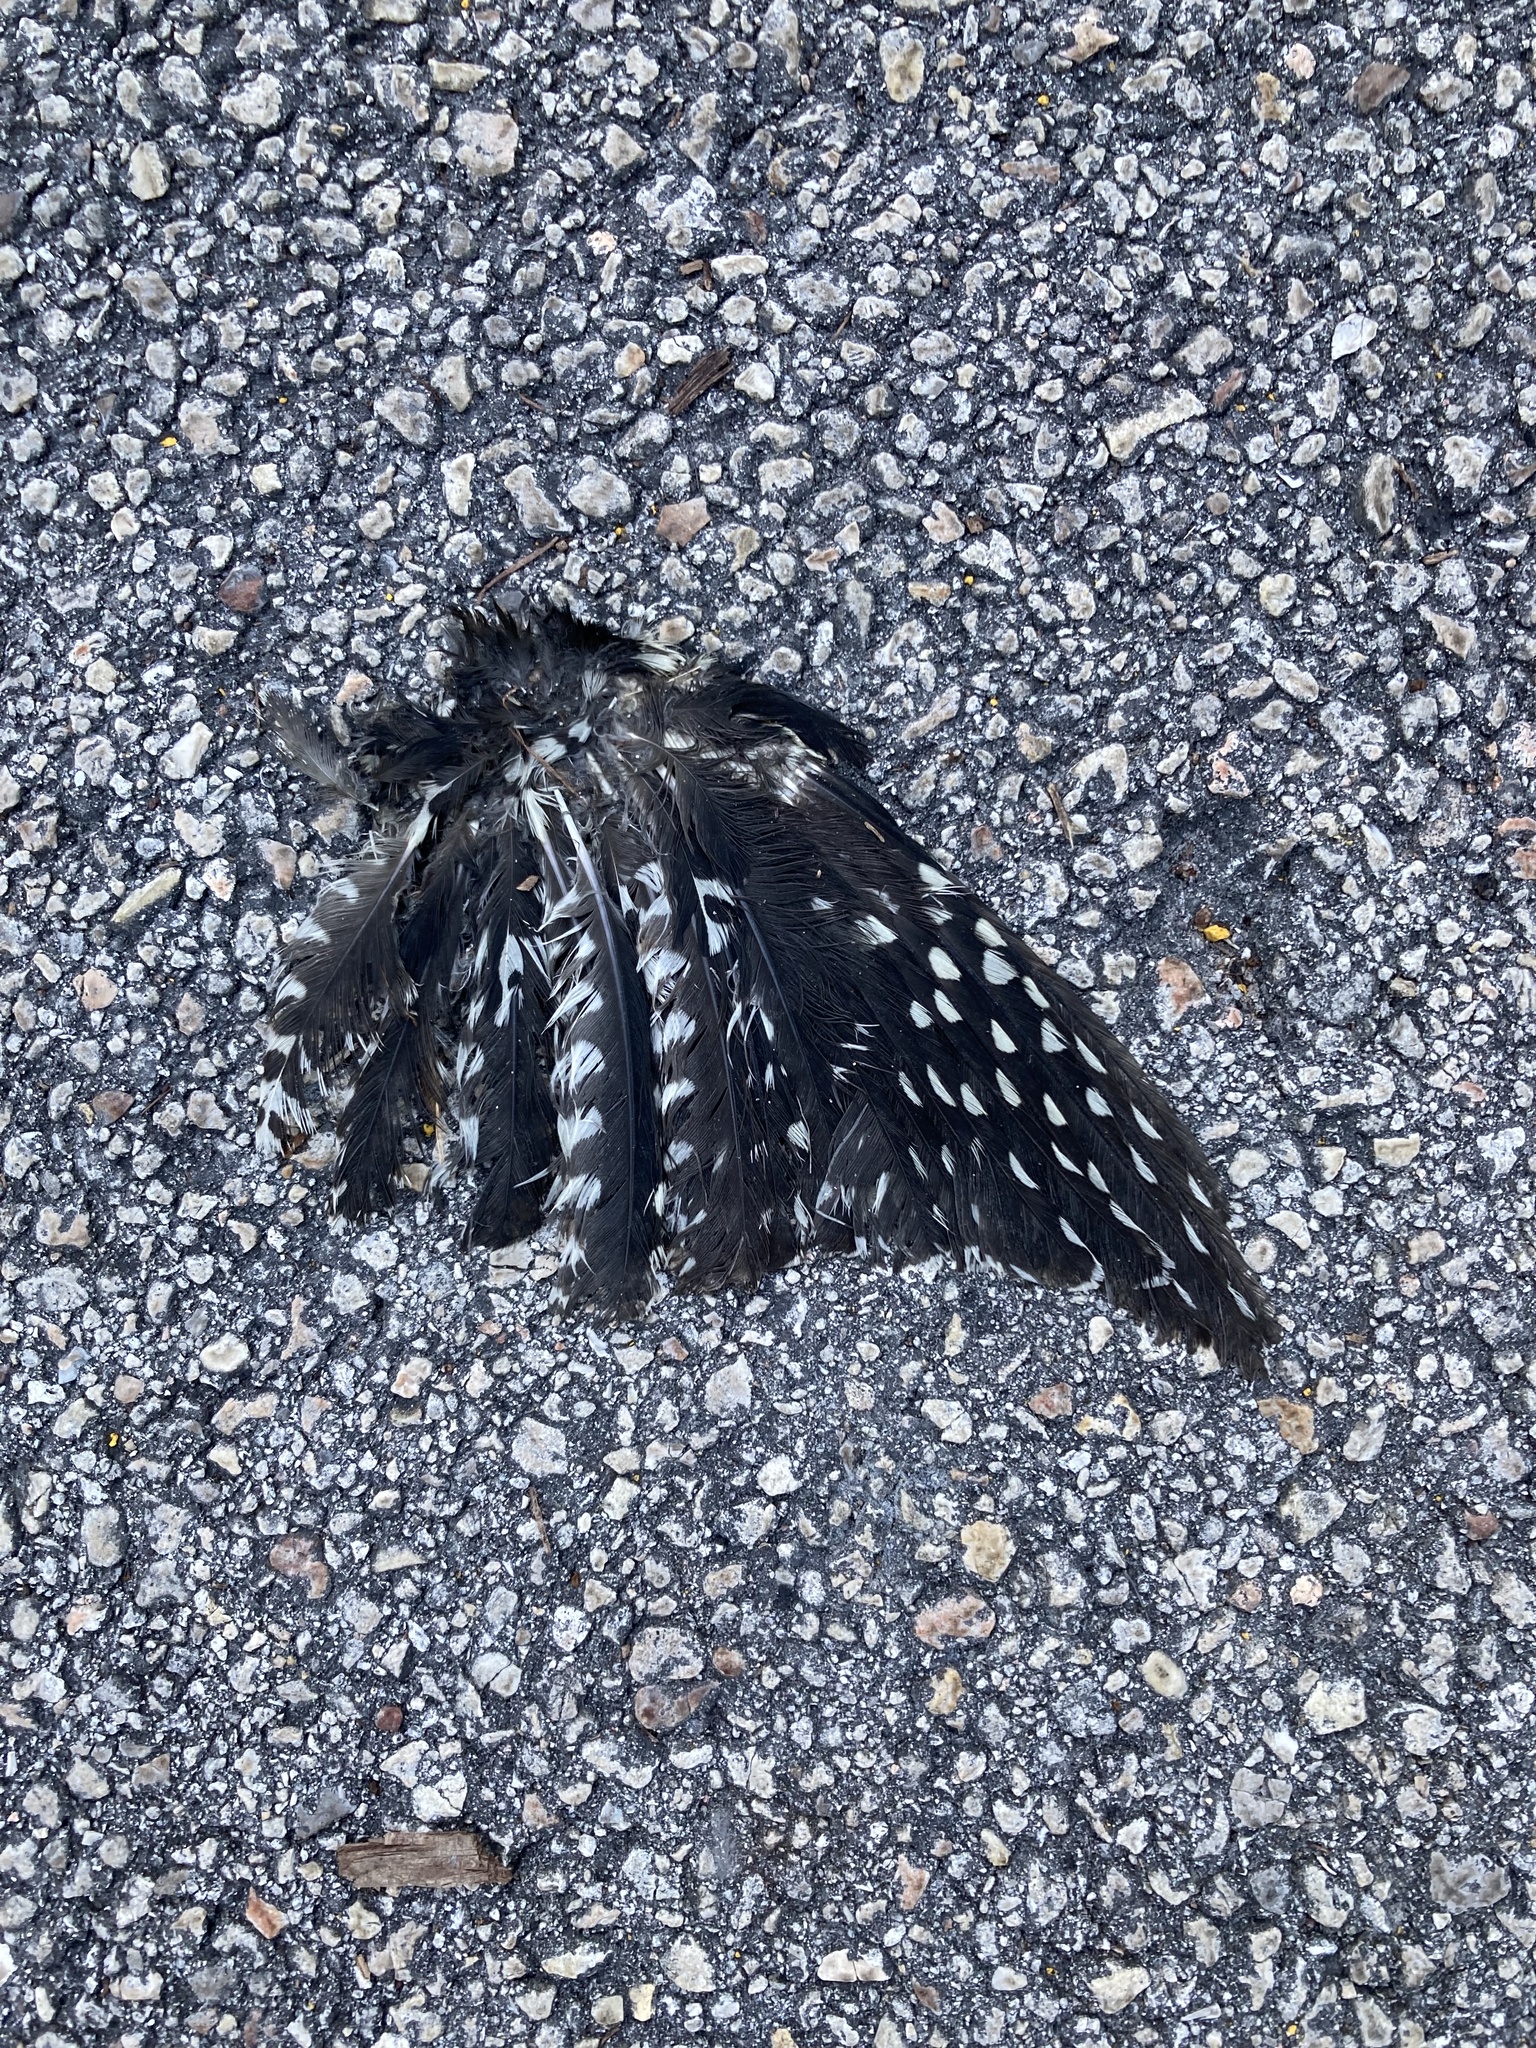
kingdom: Animalia
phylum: Chordata
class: Aves
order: Piciformes
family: Picidae
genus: Sphyrapicus
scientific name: Sphyrapicus varius
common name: Yellow-bellied sapsucker
